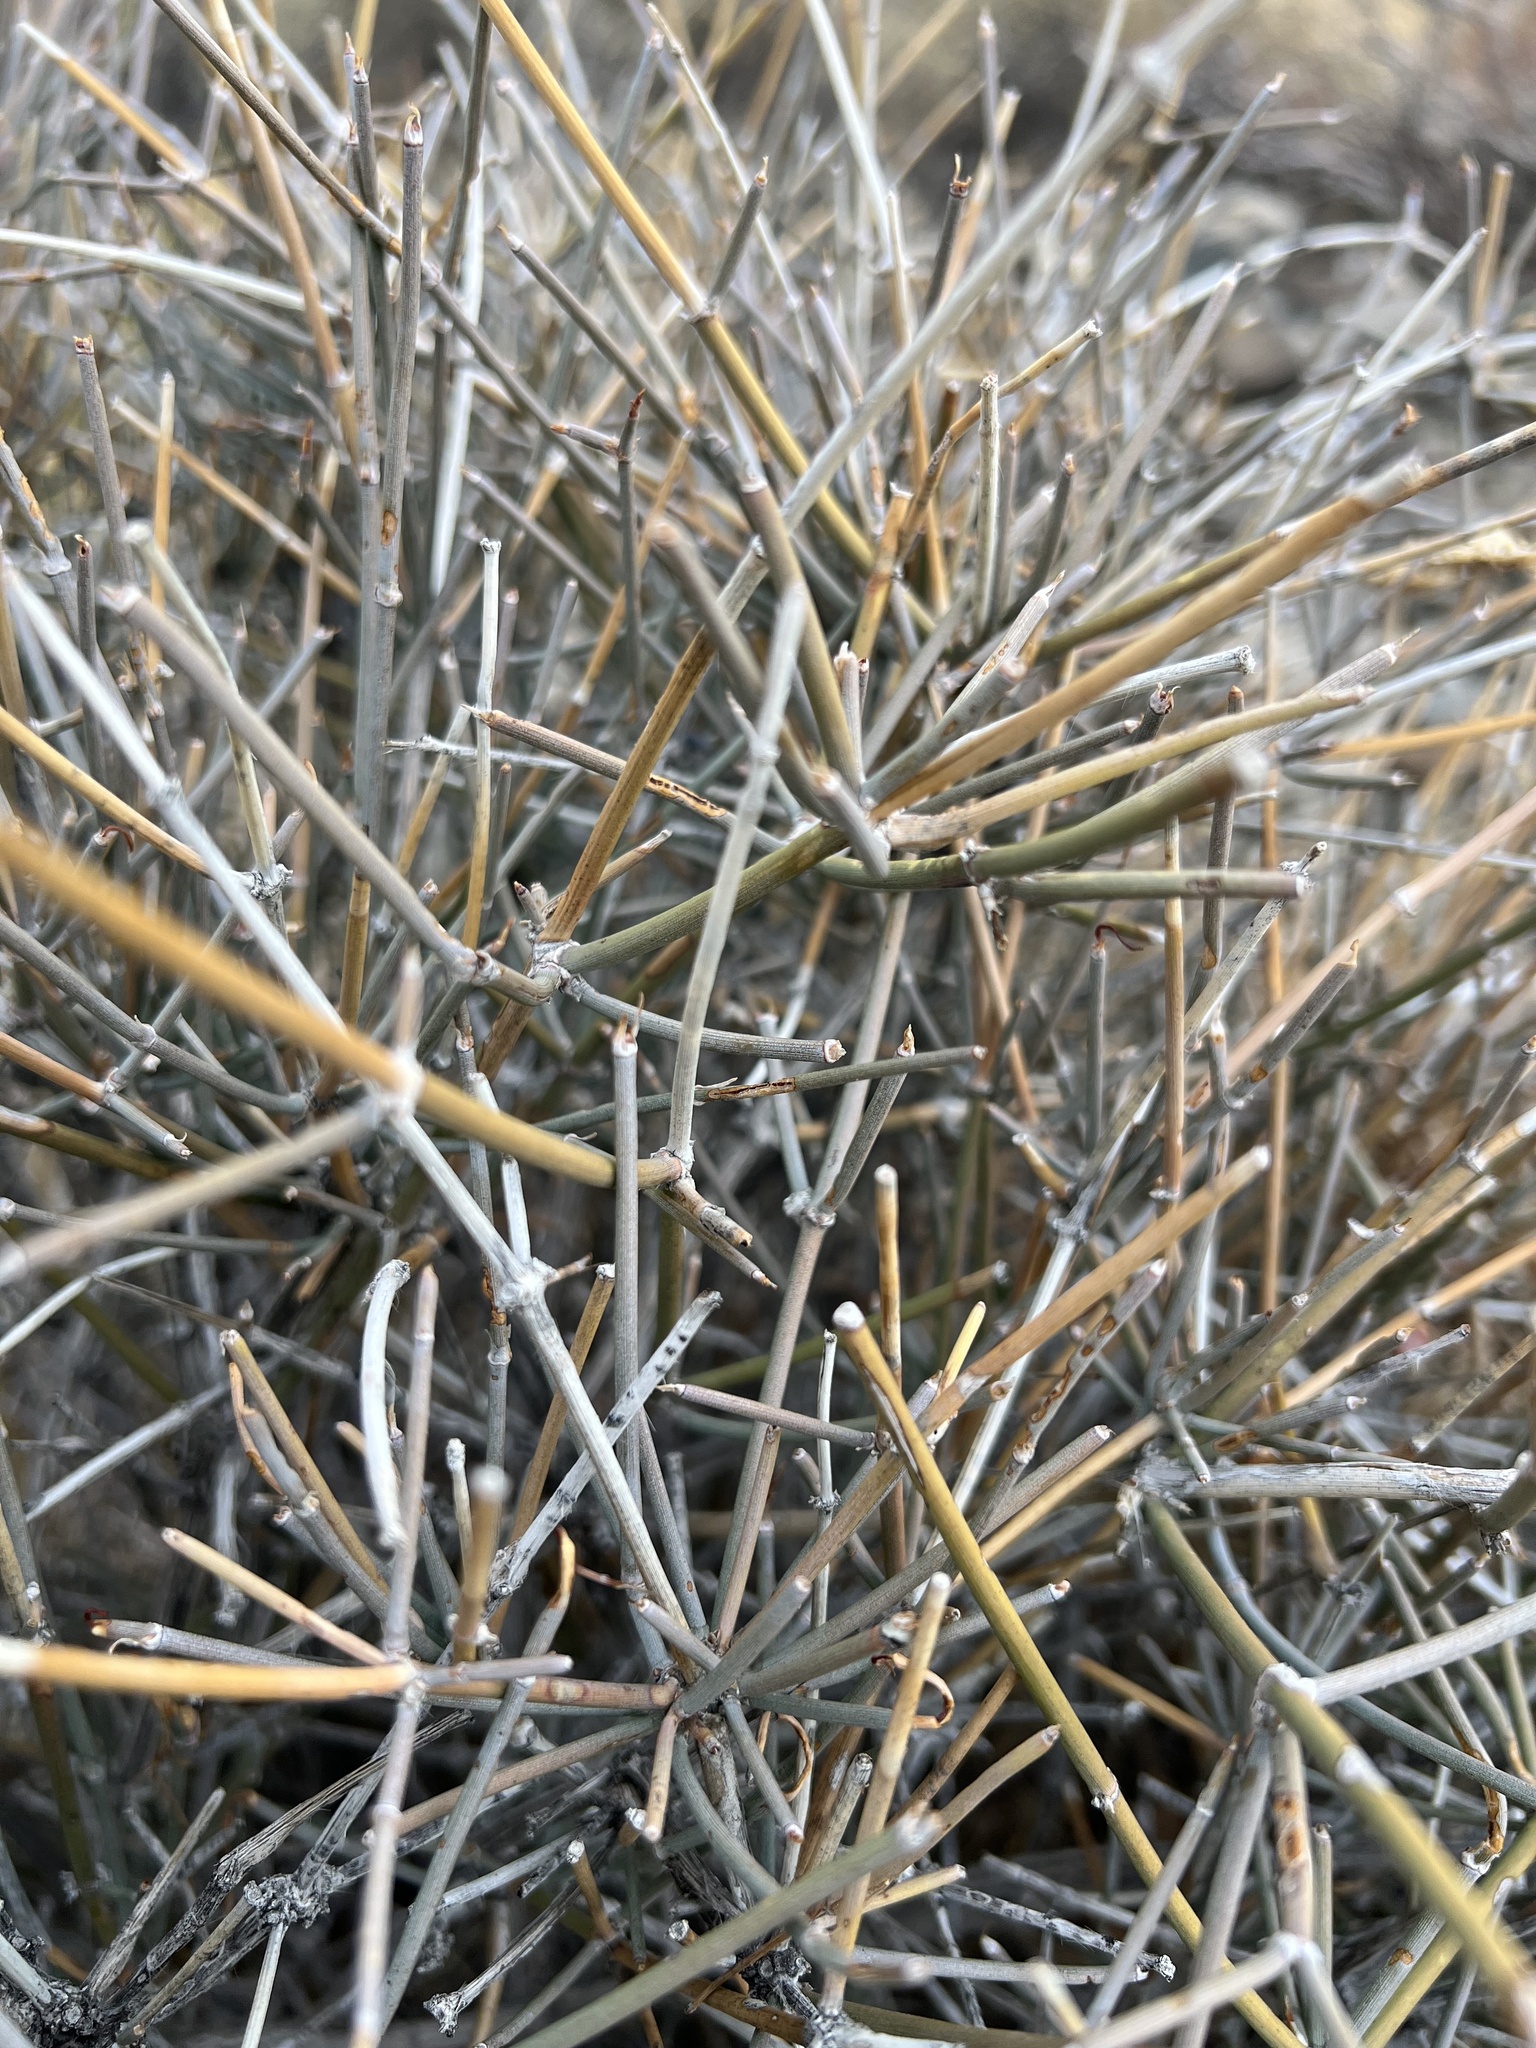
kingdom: Plantae
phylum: Tracheophyta
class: Gnetopsida
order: Ephedrales
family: Ephedraceae
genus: Ephedra
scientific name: Ephedra nevadensis
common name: Gray ephedra
